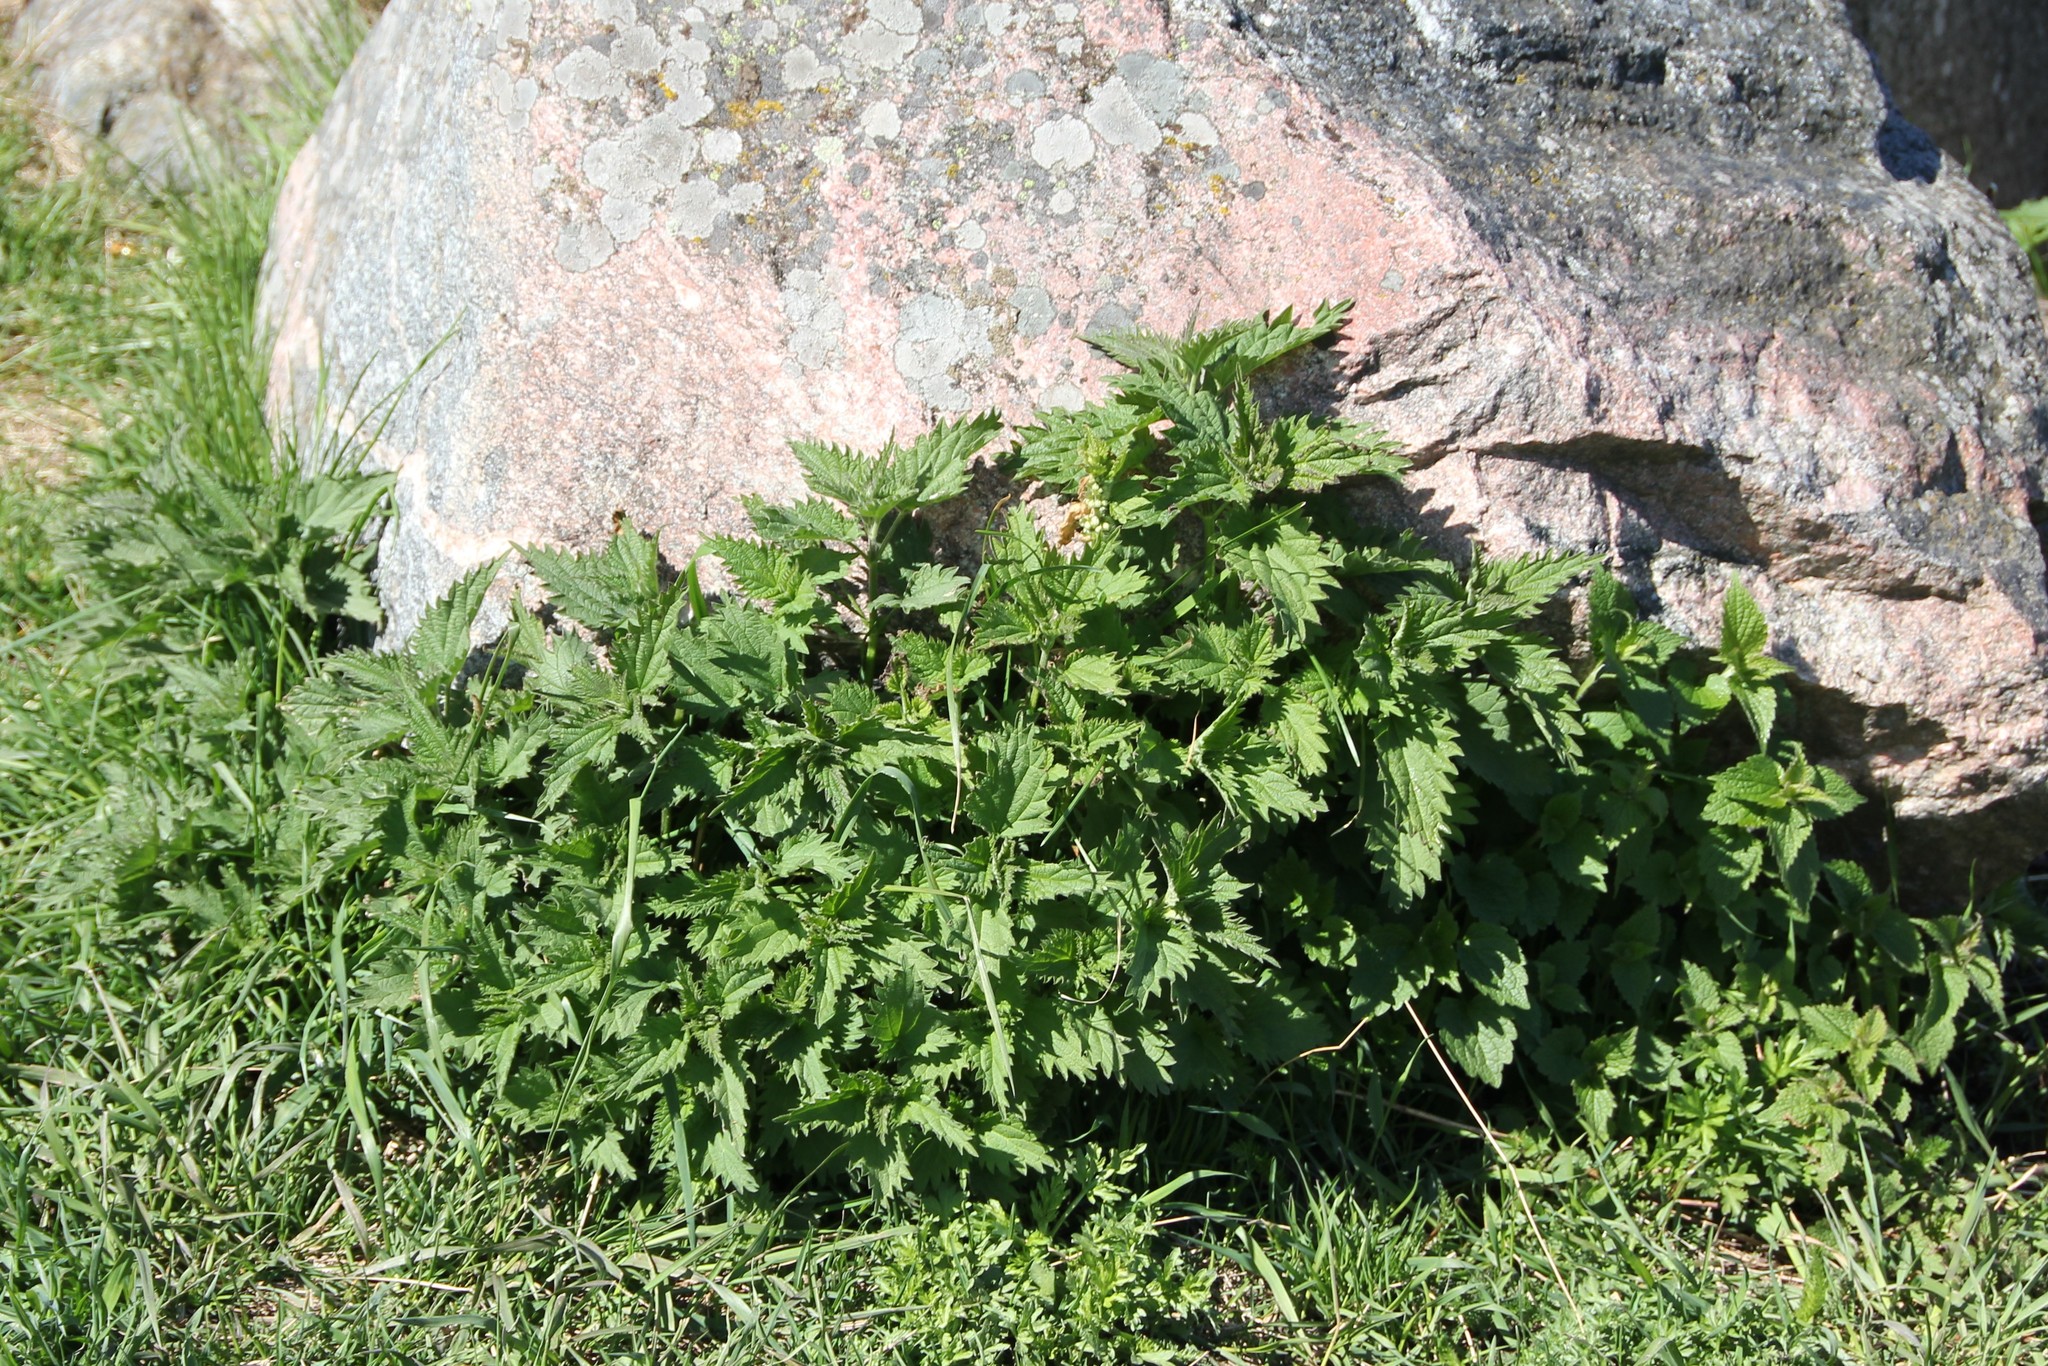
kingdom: Plantae
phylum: Tracheophyta
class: Magnoliopsida
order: Rosales
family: Urticaceae
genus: Urtica
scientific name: Urtica dioica
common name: Common nettle
